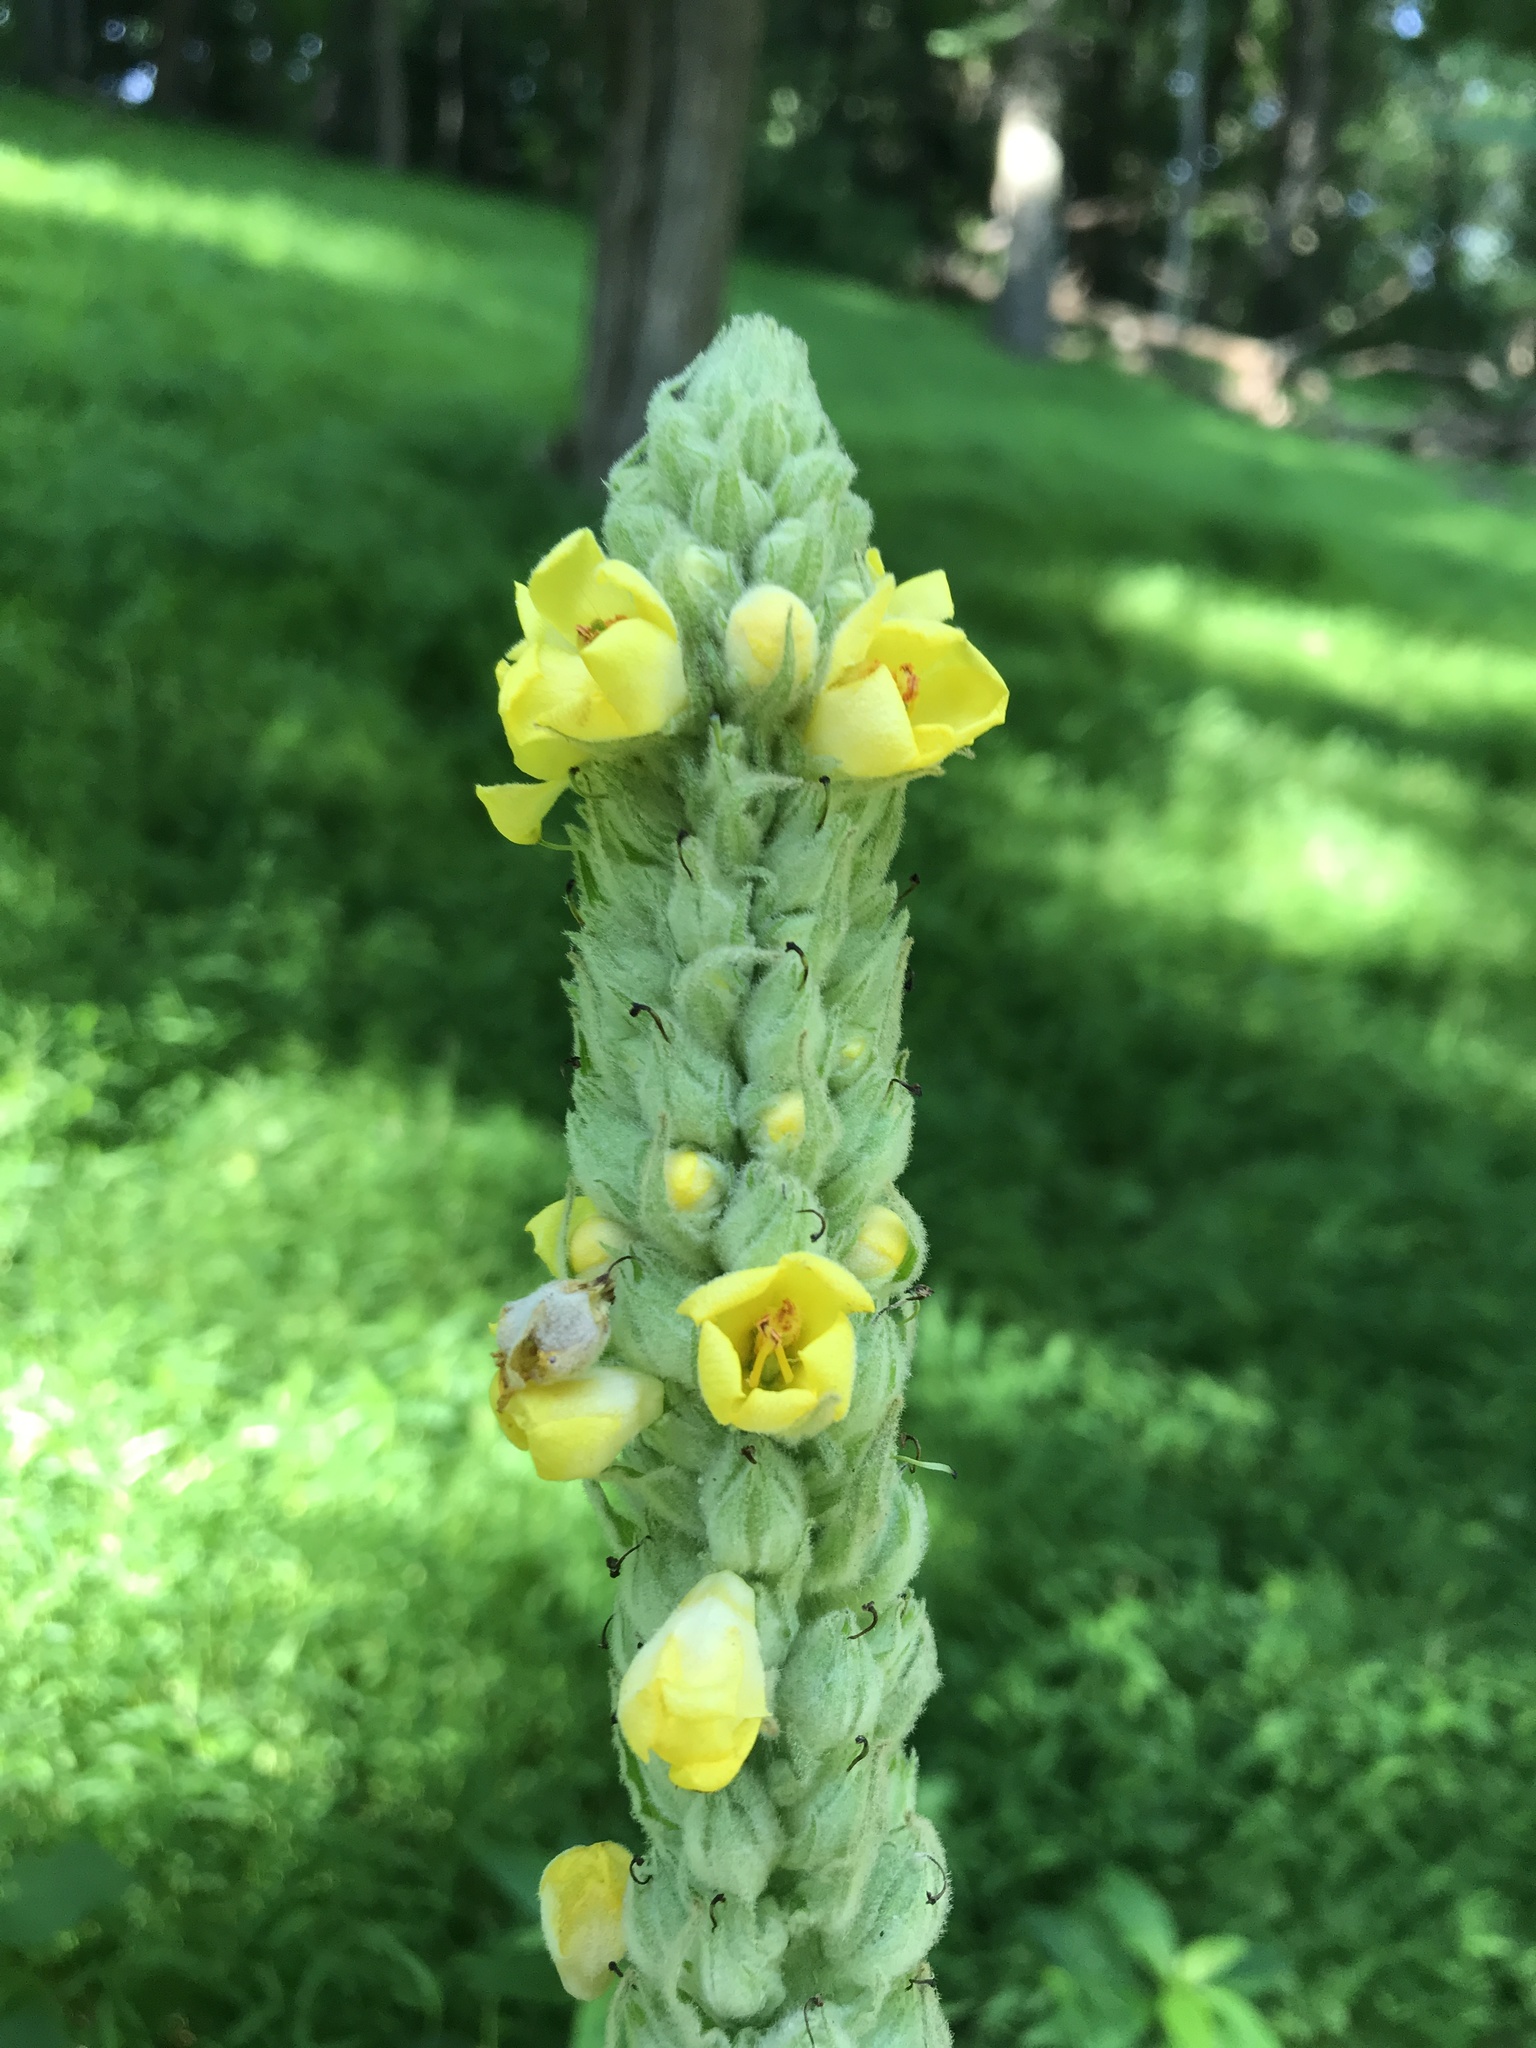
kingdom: Plantae
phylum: Tracheophyta
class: Magnoliopsida
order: Lamiales
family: Scrophulariaceae
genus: Verbascum
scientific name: Verbascum thapsus
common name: Common mullein
